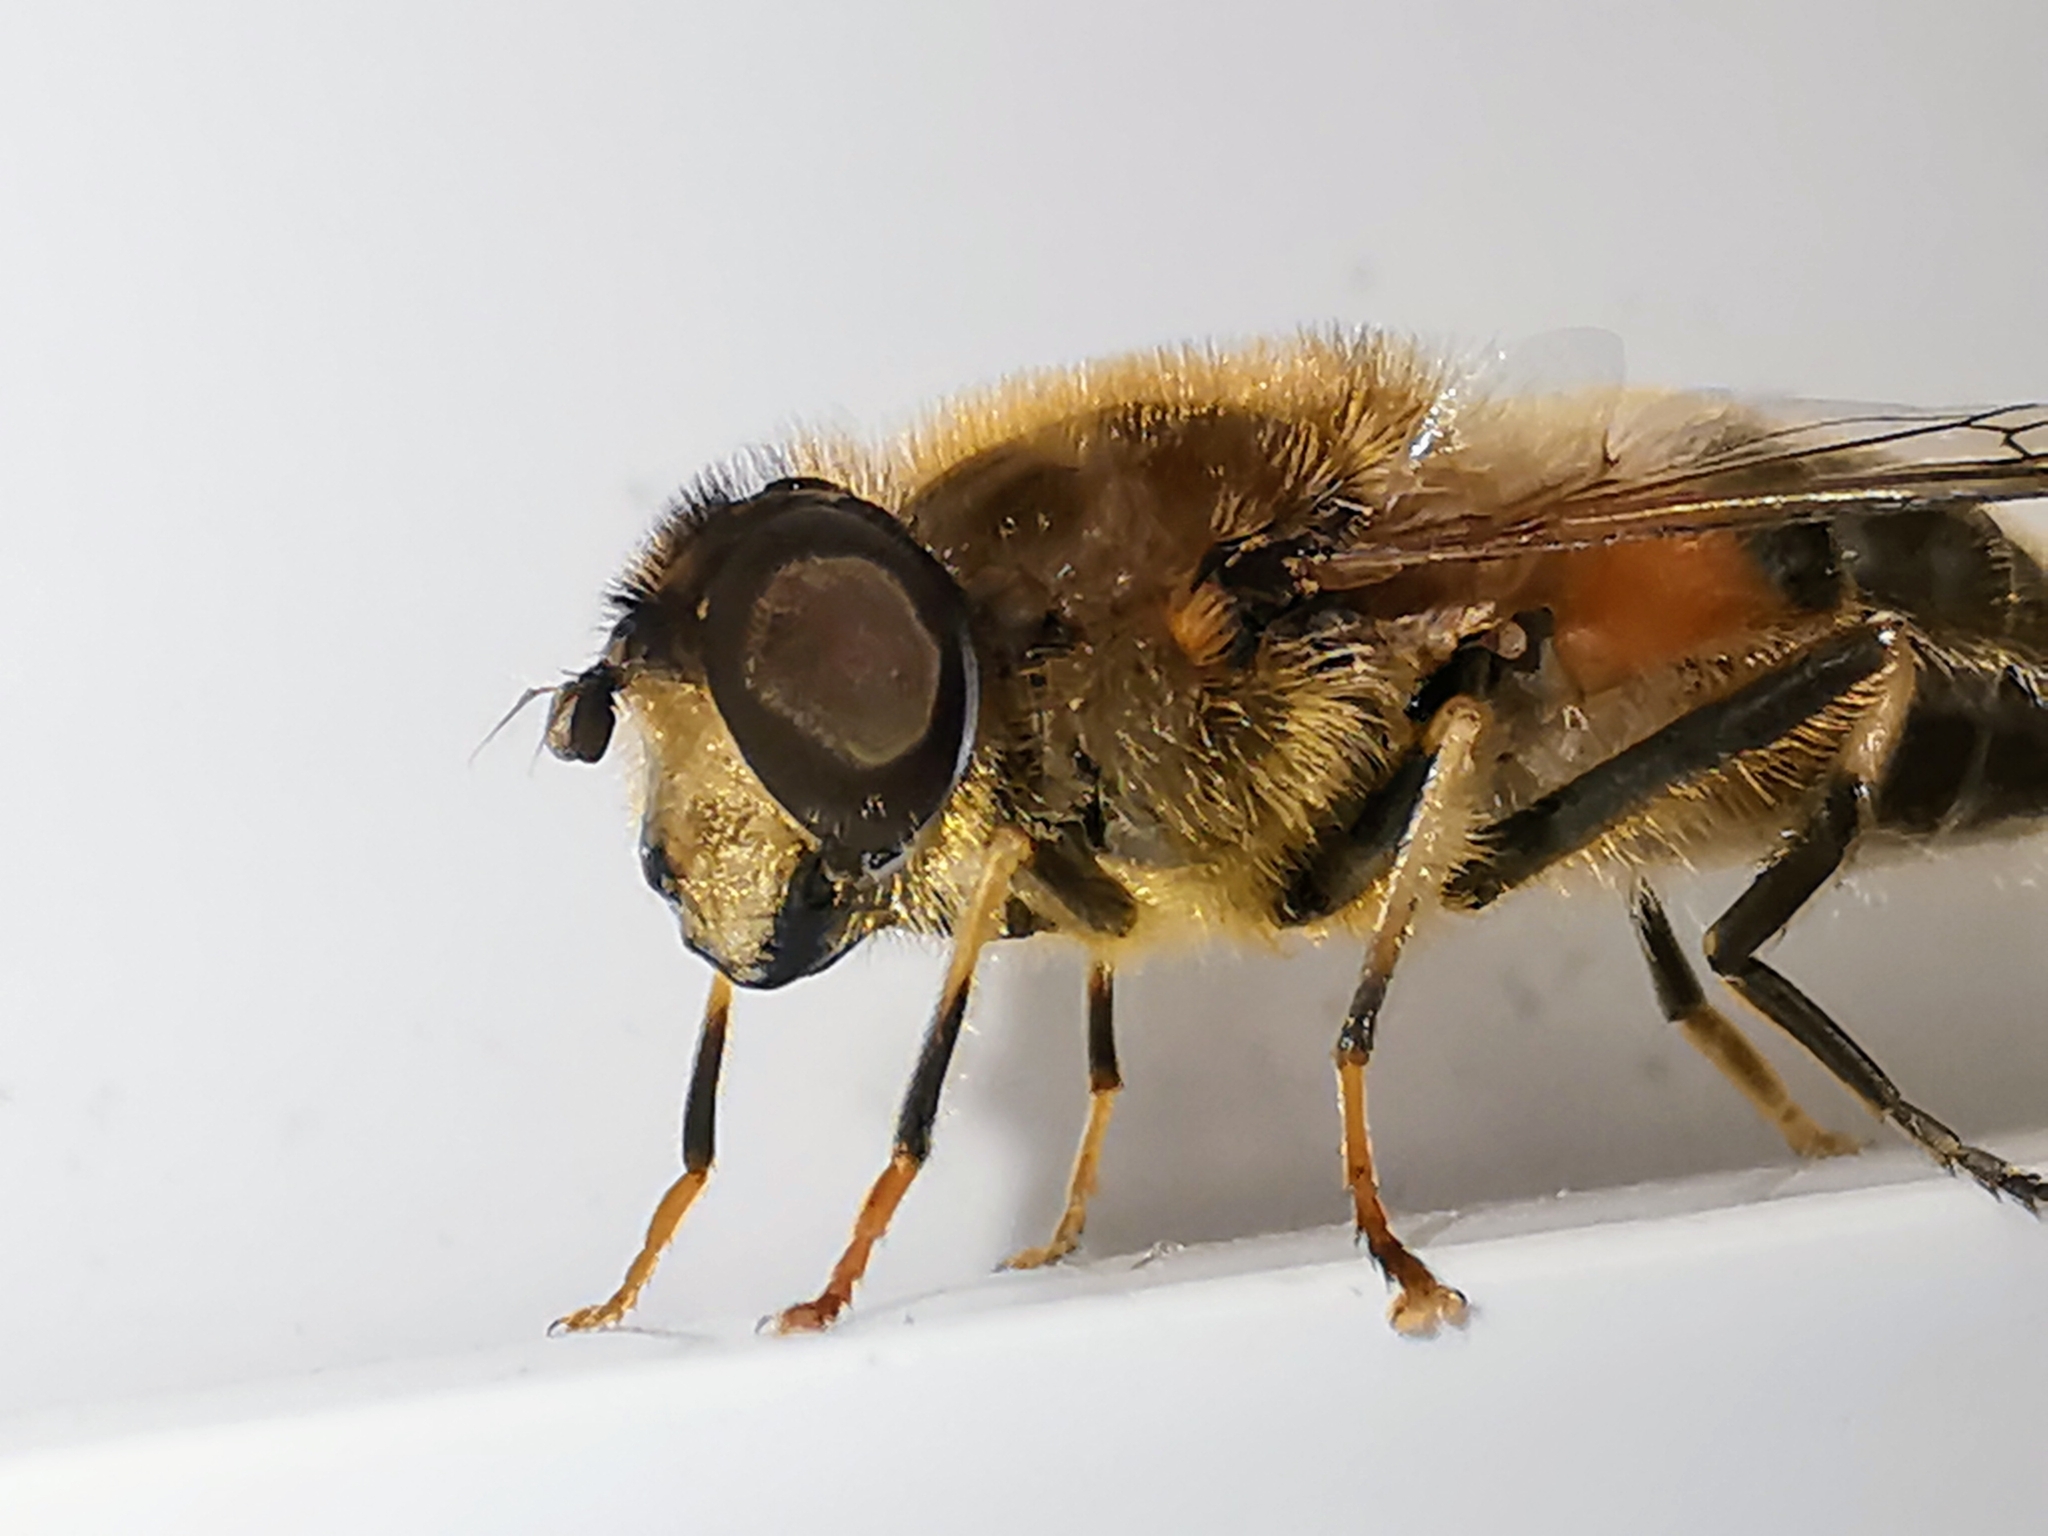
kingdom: Animalia
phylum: Arthropoda
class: Insecta
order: Diptera
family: Syrphidae
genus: Eristalis
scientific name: Eristalis pertinax
